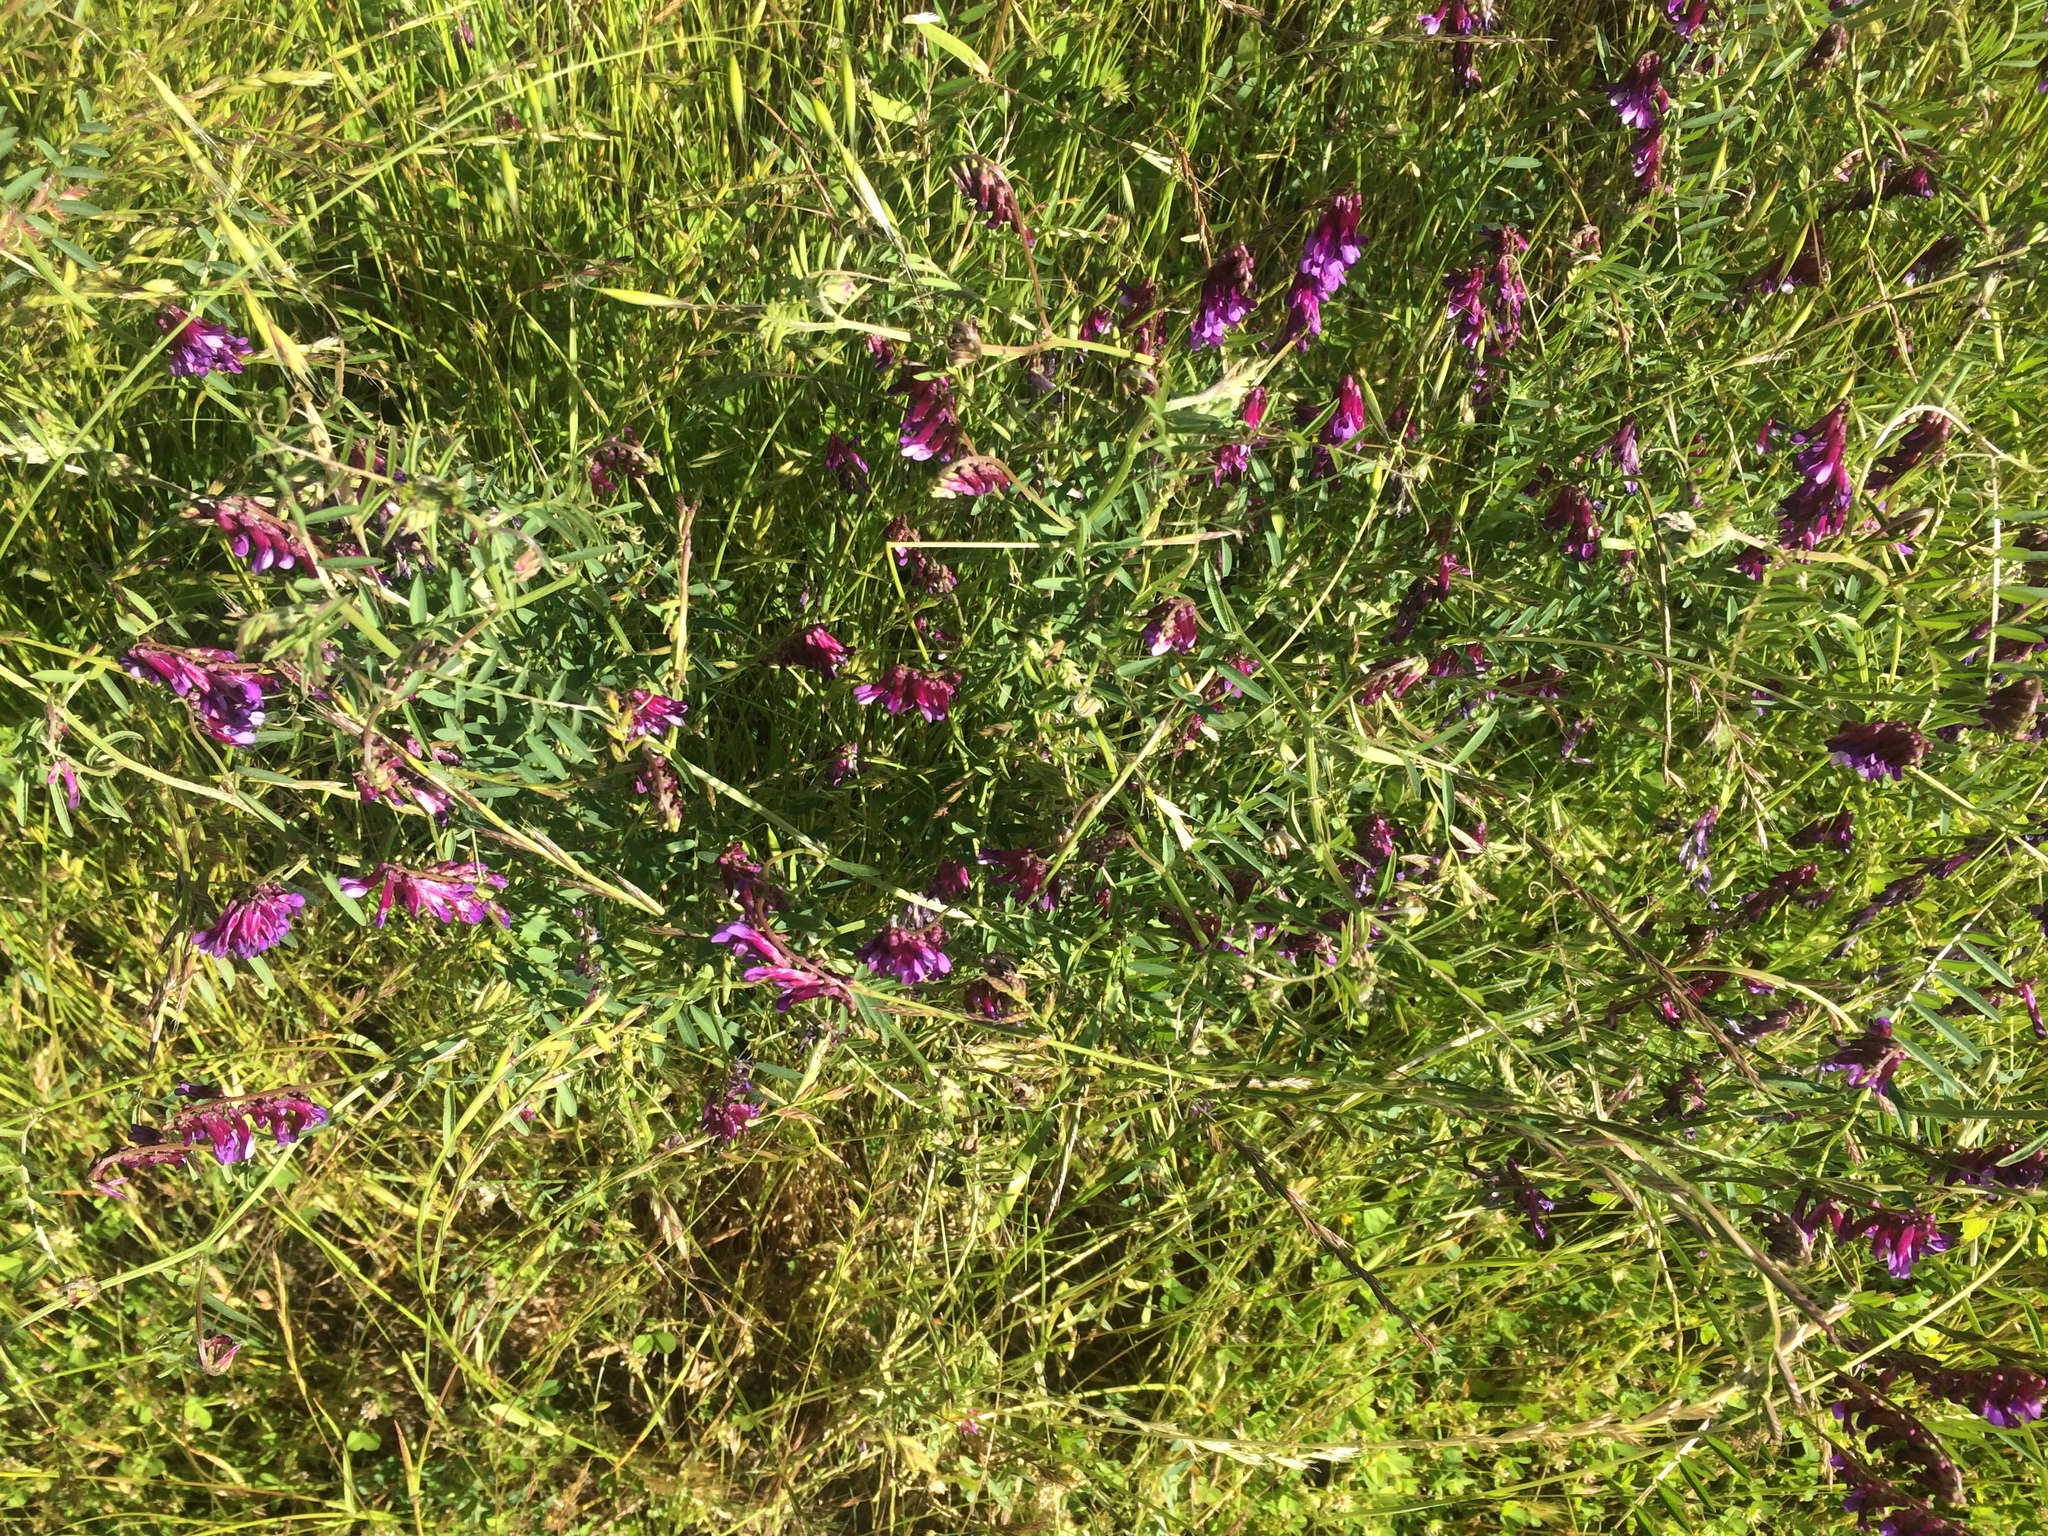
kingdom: Plantae
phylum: Tracheophyta
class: Magnoliopsida
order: Fabales
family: Fabaceae
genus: Vicia
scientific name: Vicia villosa
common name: Fodder vetch
